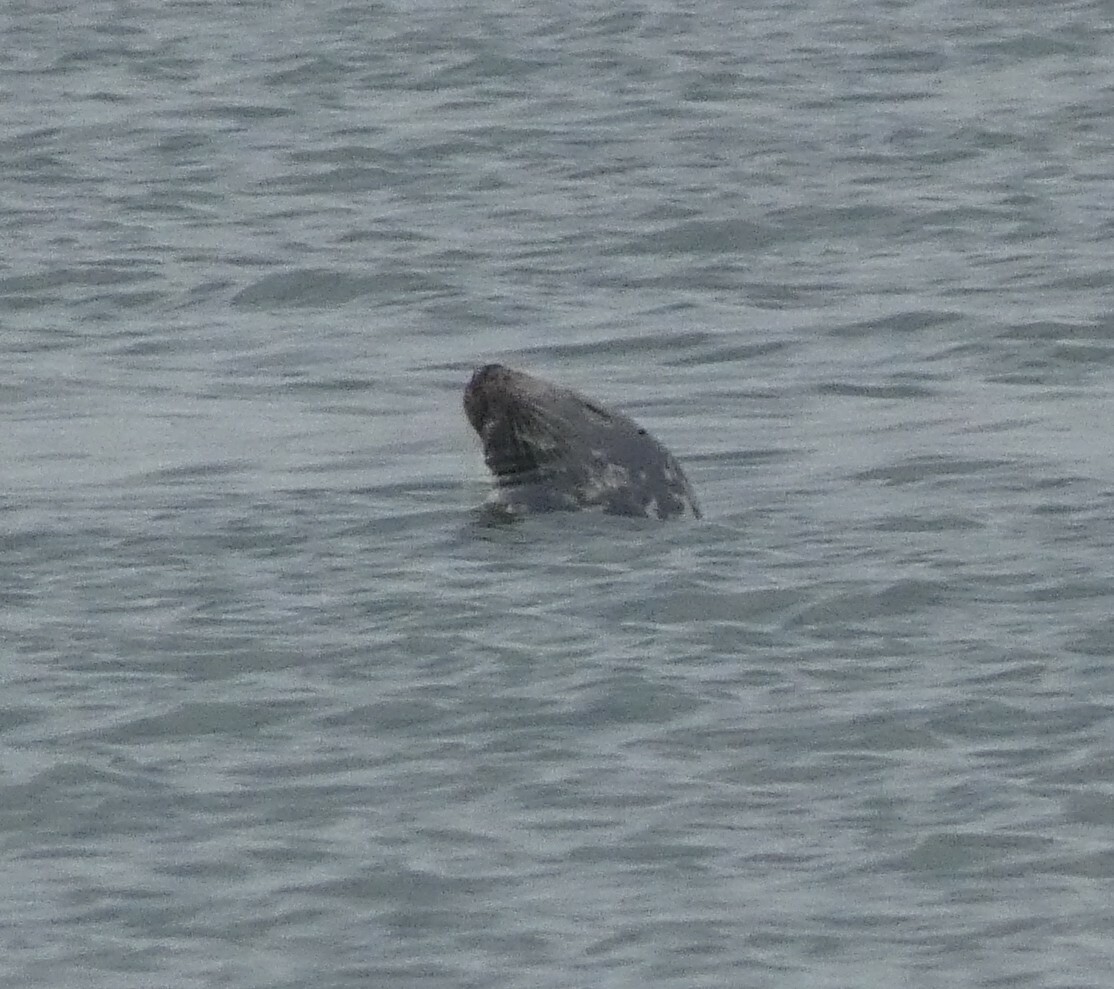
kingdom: Animalia
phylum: Chordata
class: Mammalia
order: Carnivora
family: Phocidae
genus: Halichoerus
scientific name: Halichoerus grypus
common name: Grey seal
